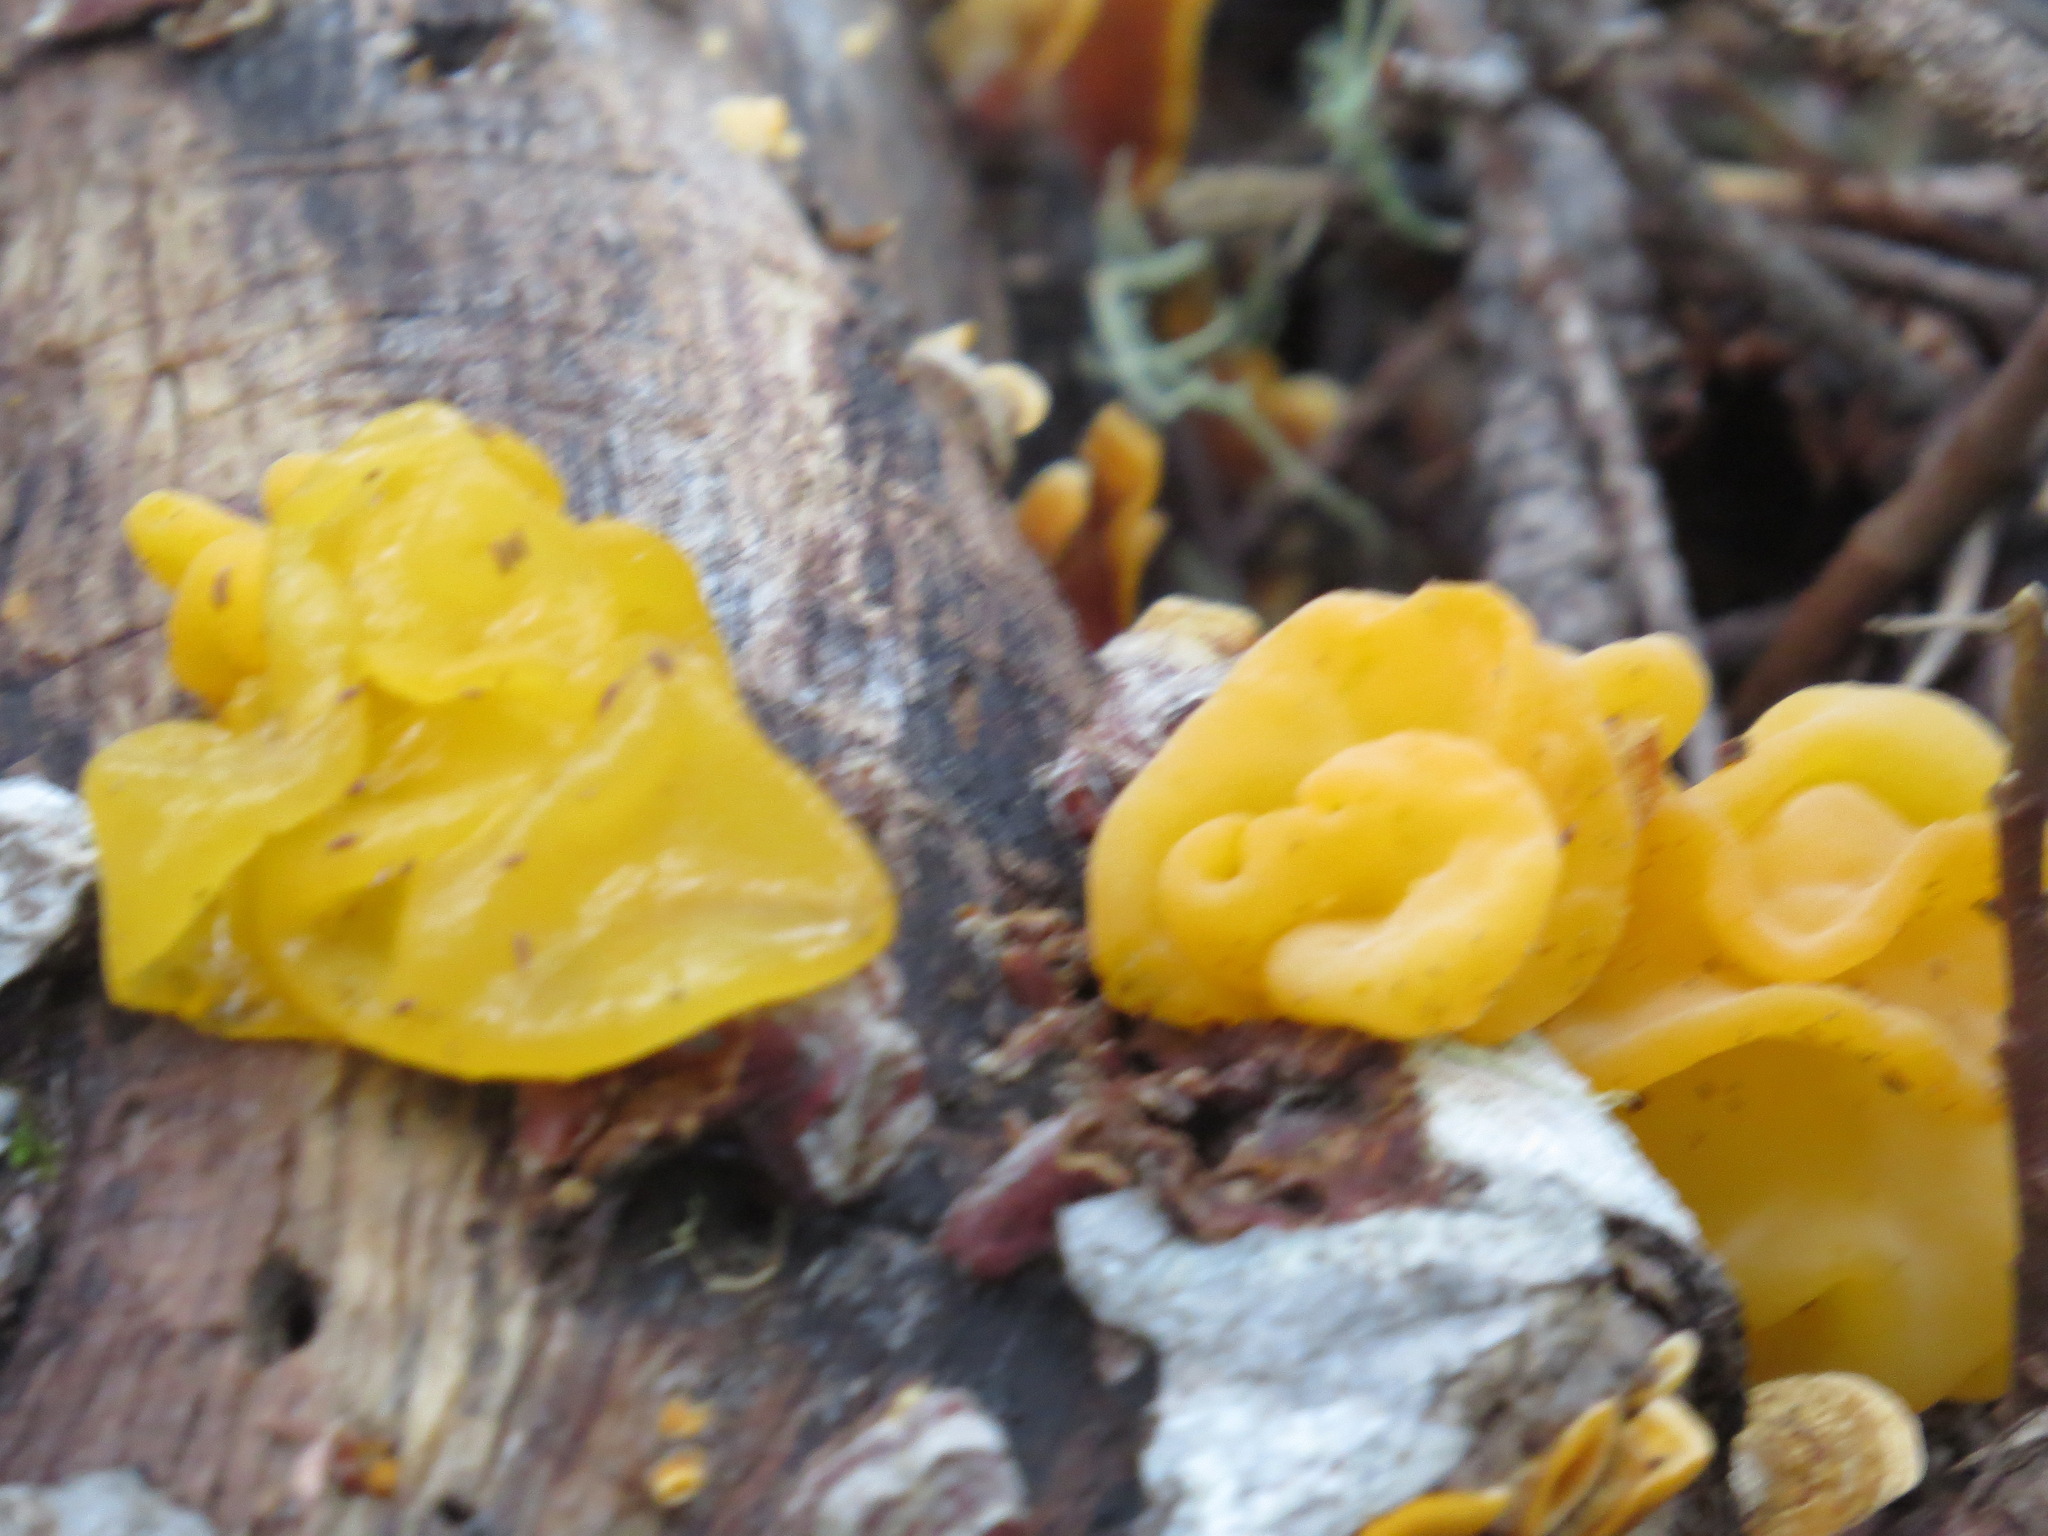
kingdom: Fungi
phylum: Basidiomycota
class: Tremellomycetes
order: Tremellales
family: Naemateliaceae
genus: Naematelia
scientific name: Naematelia aurantia
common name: Golden ear
